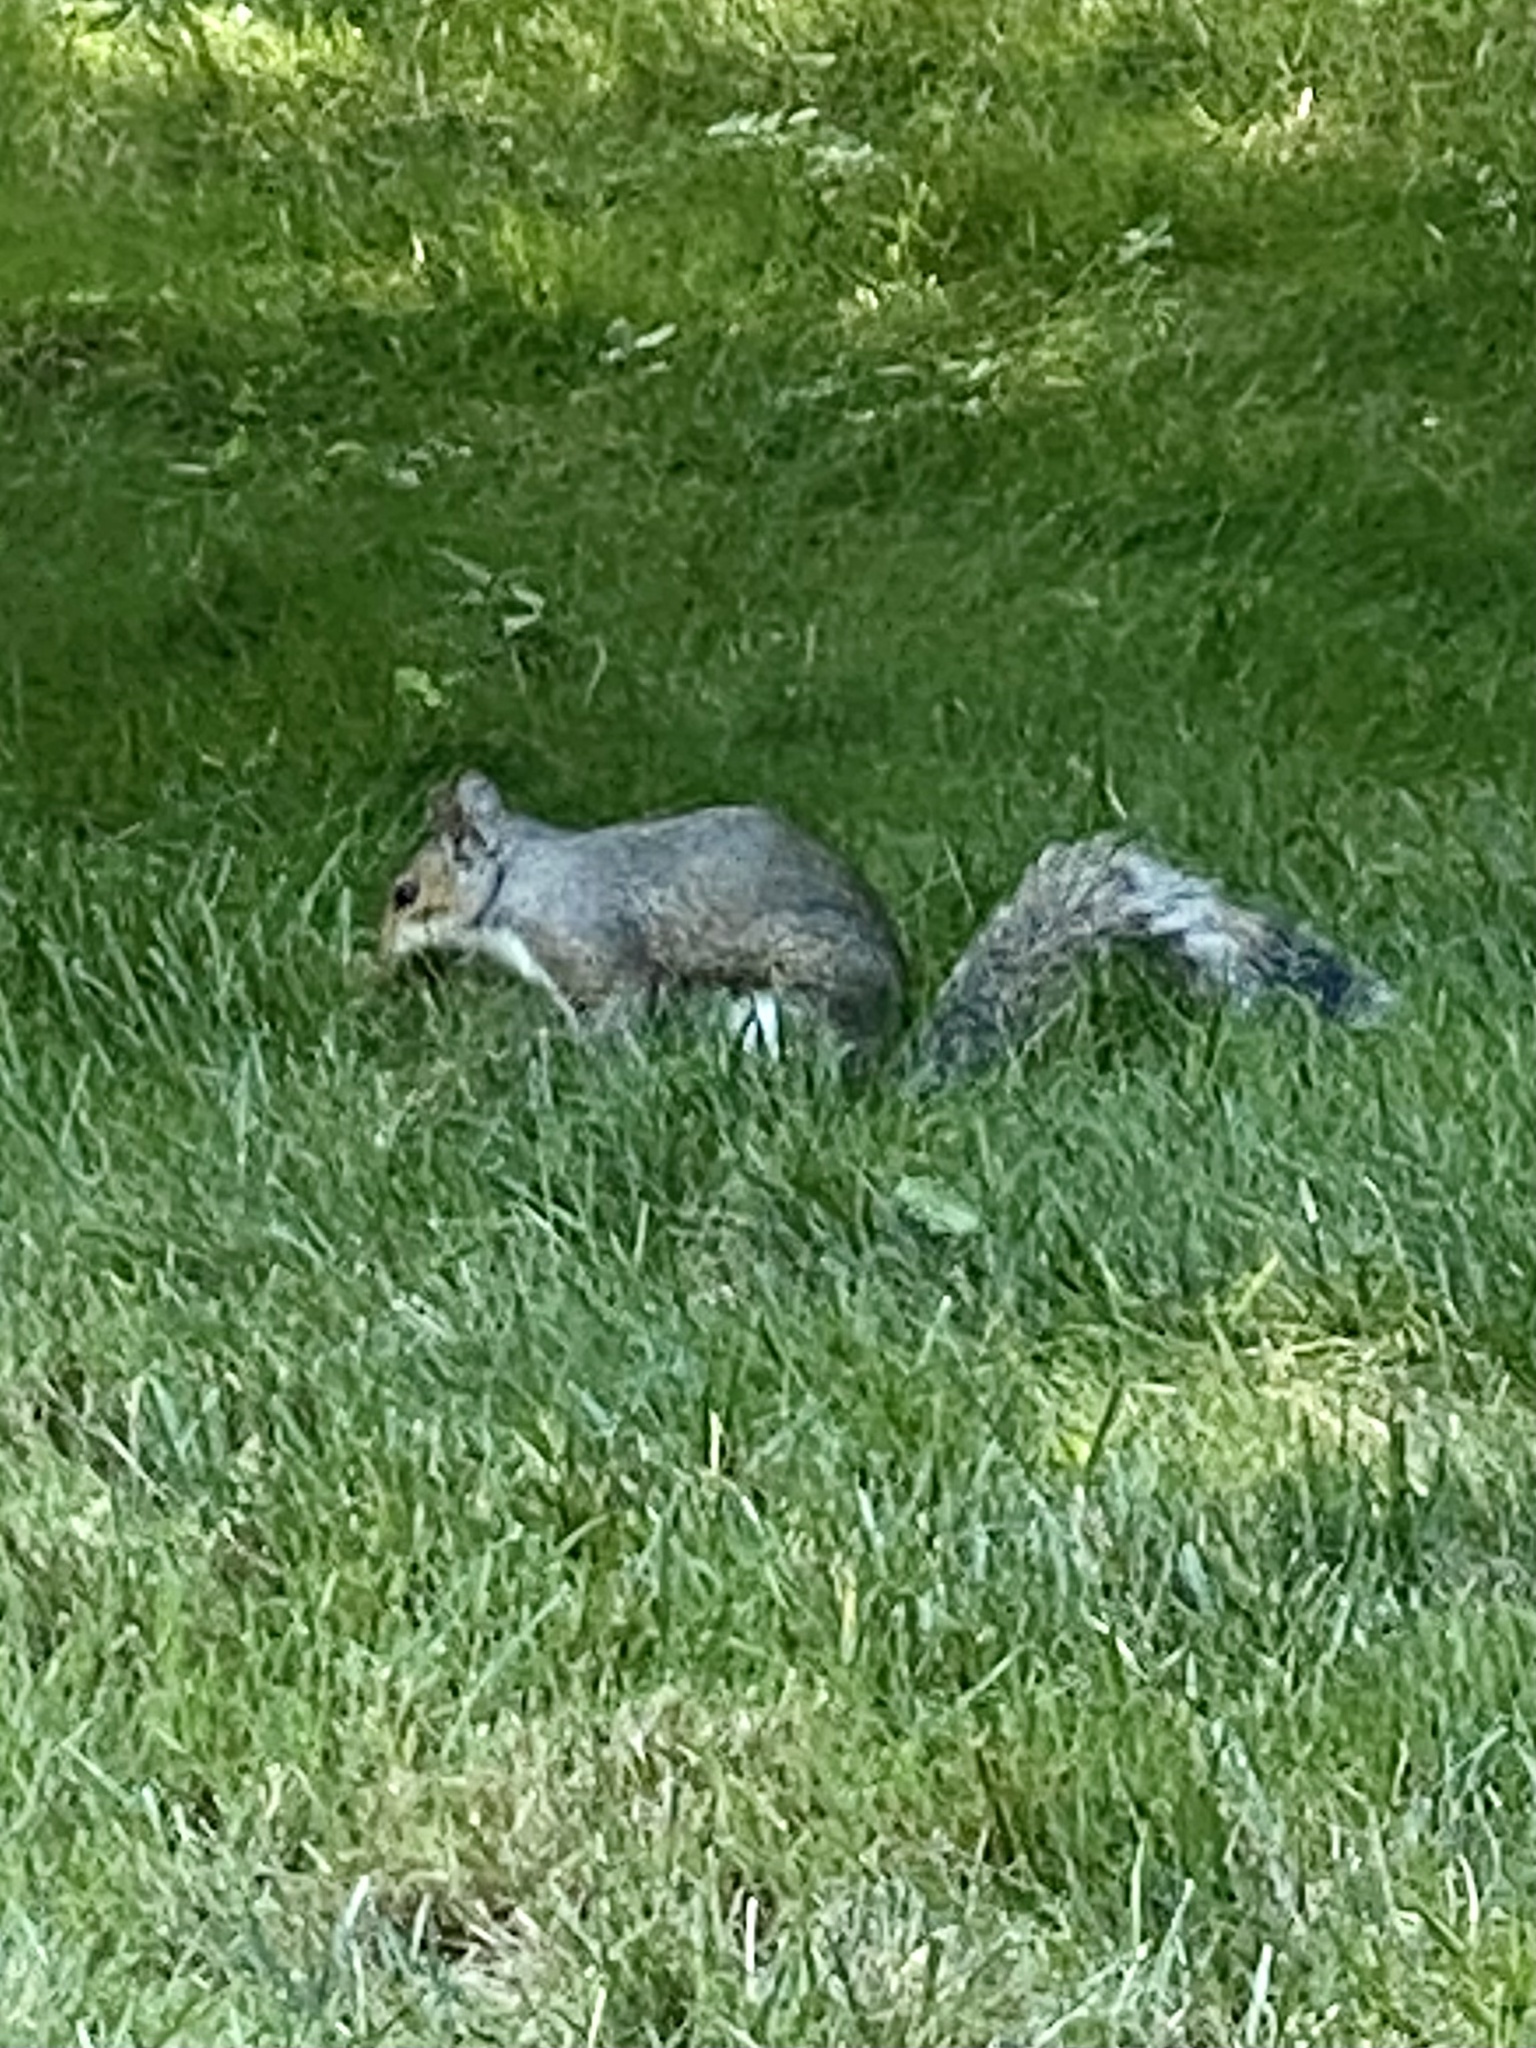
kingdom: Animalia
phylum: Chordata
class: Mammalia
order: Rodentia
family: Sciuridae
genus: Sciurus
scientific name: Sciurus carolinensis
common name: Eastern gray squirrel
